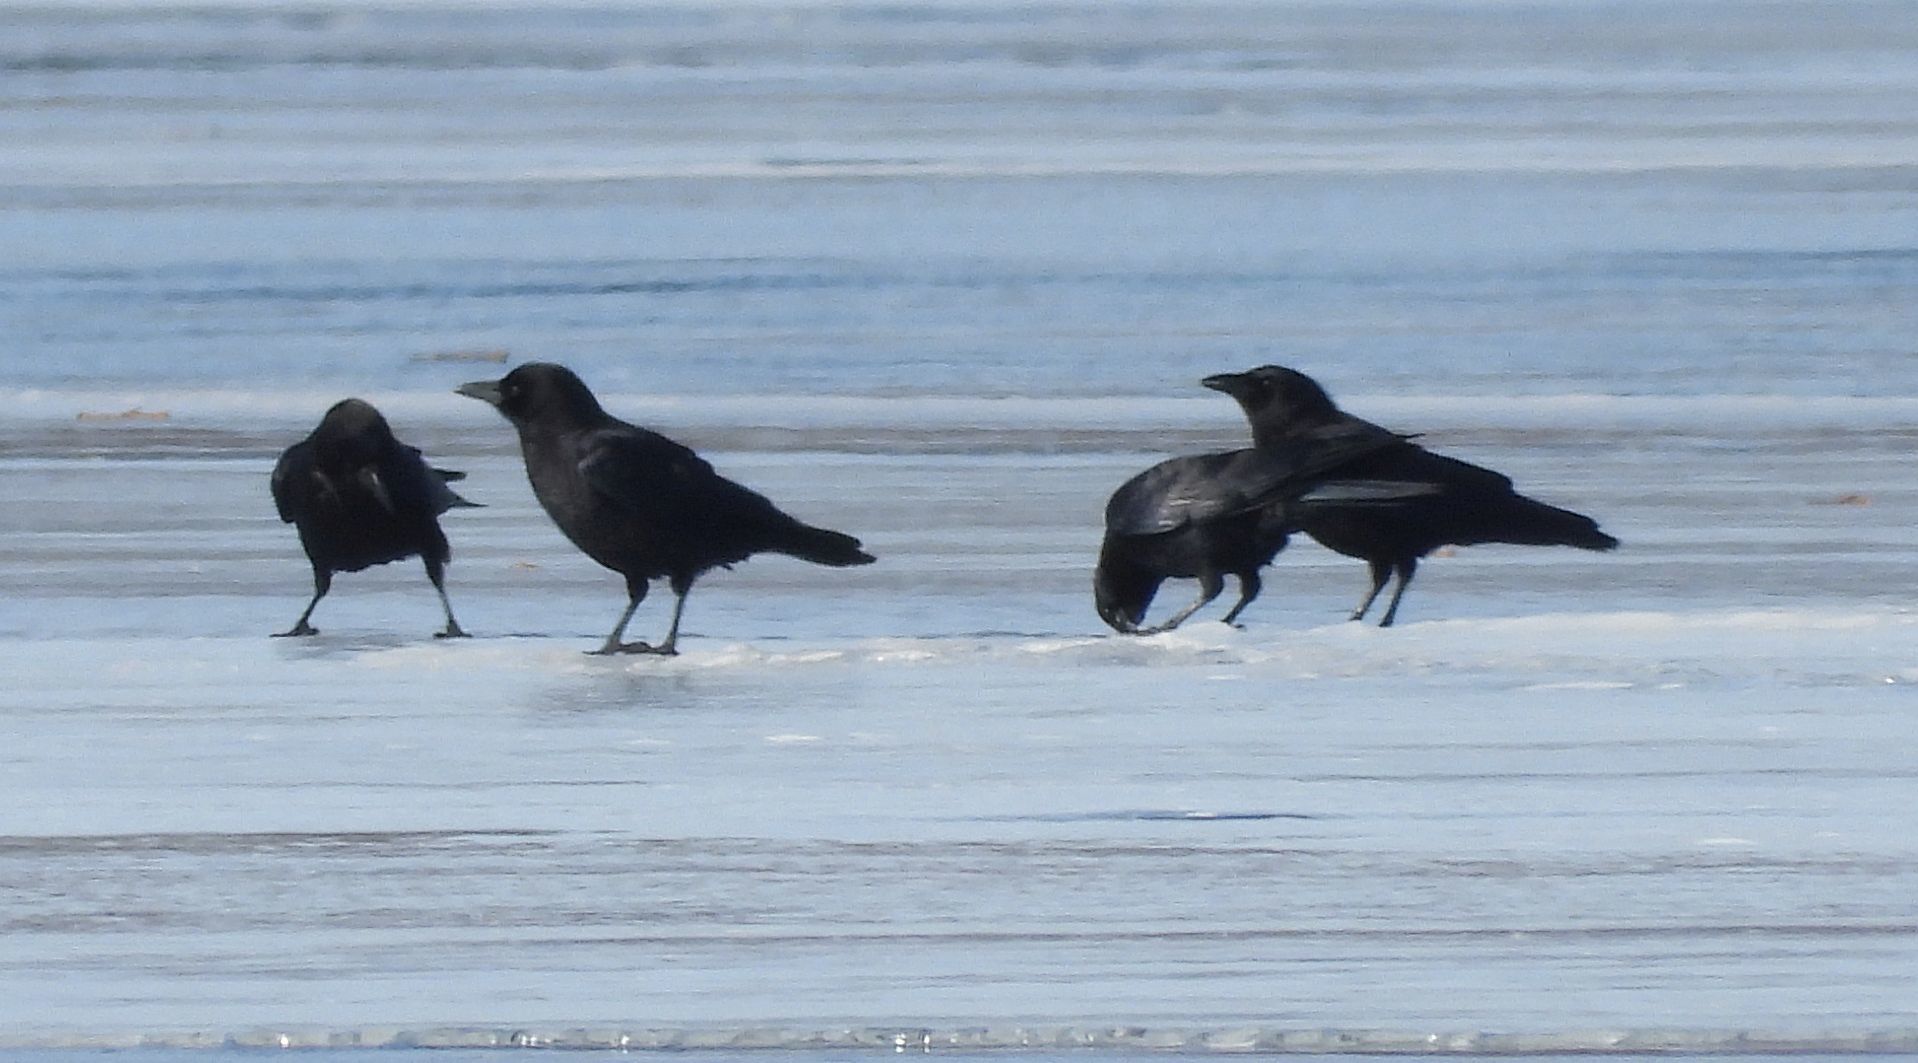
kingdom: Animalia
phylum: Chordata
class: Aves
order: Passeriformes
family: Corvidae
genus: Corvus
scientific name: Corvus brachyrhynchos
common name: American crow
